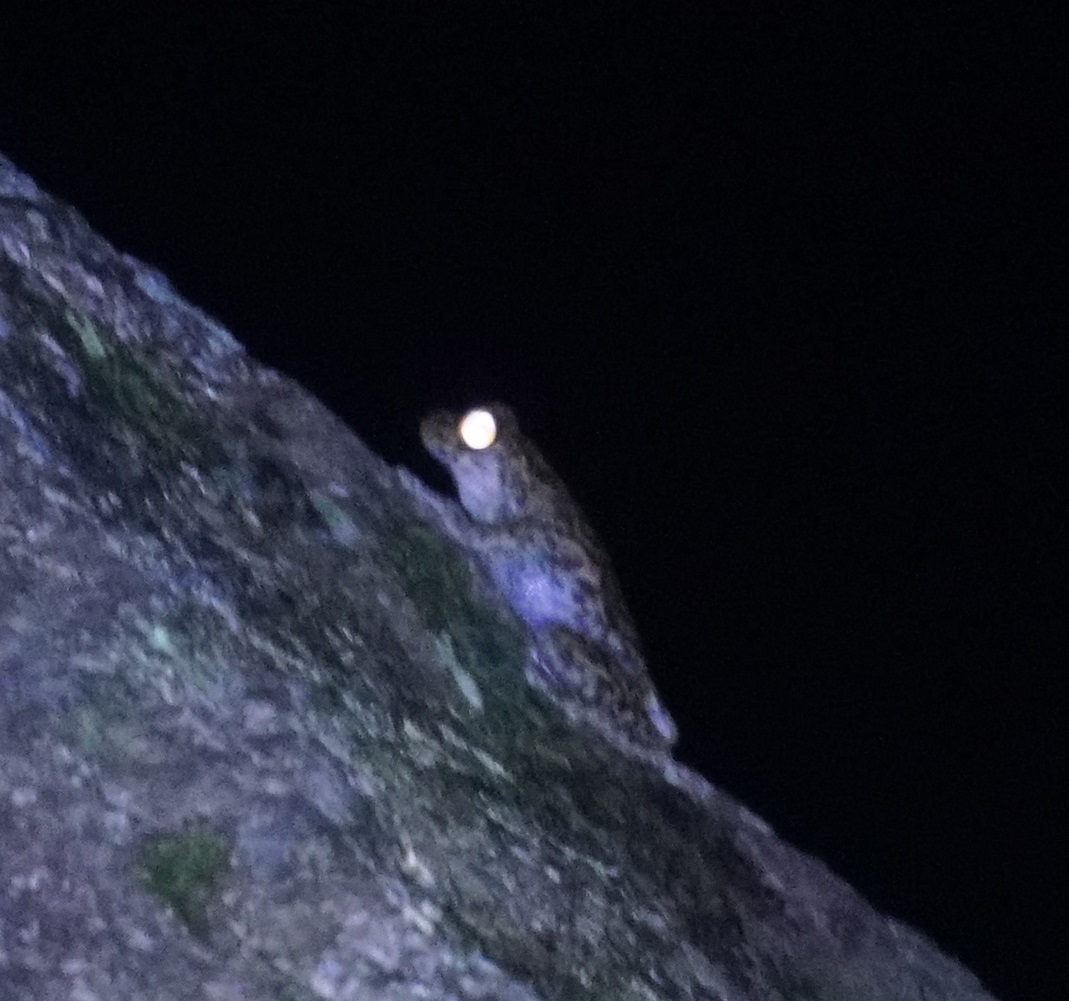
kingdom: Animalia
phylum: Chordata
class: Amphibia
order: Anura
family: Pelodryadidae
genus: Ranoidea
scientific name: Ranoidea nannotis
